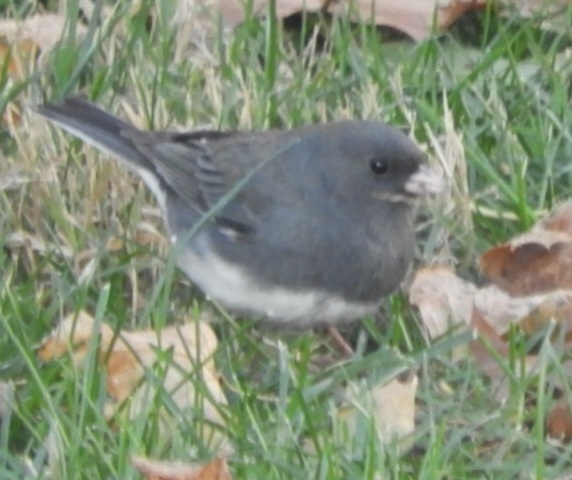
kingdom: Animalia
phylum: Chordata
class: Aves
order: Passeriformes
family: Passerellidae
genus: Junco
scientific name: Junco hyemalis
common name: Dark-eyed junco
